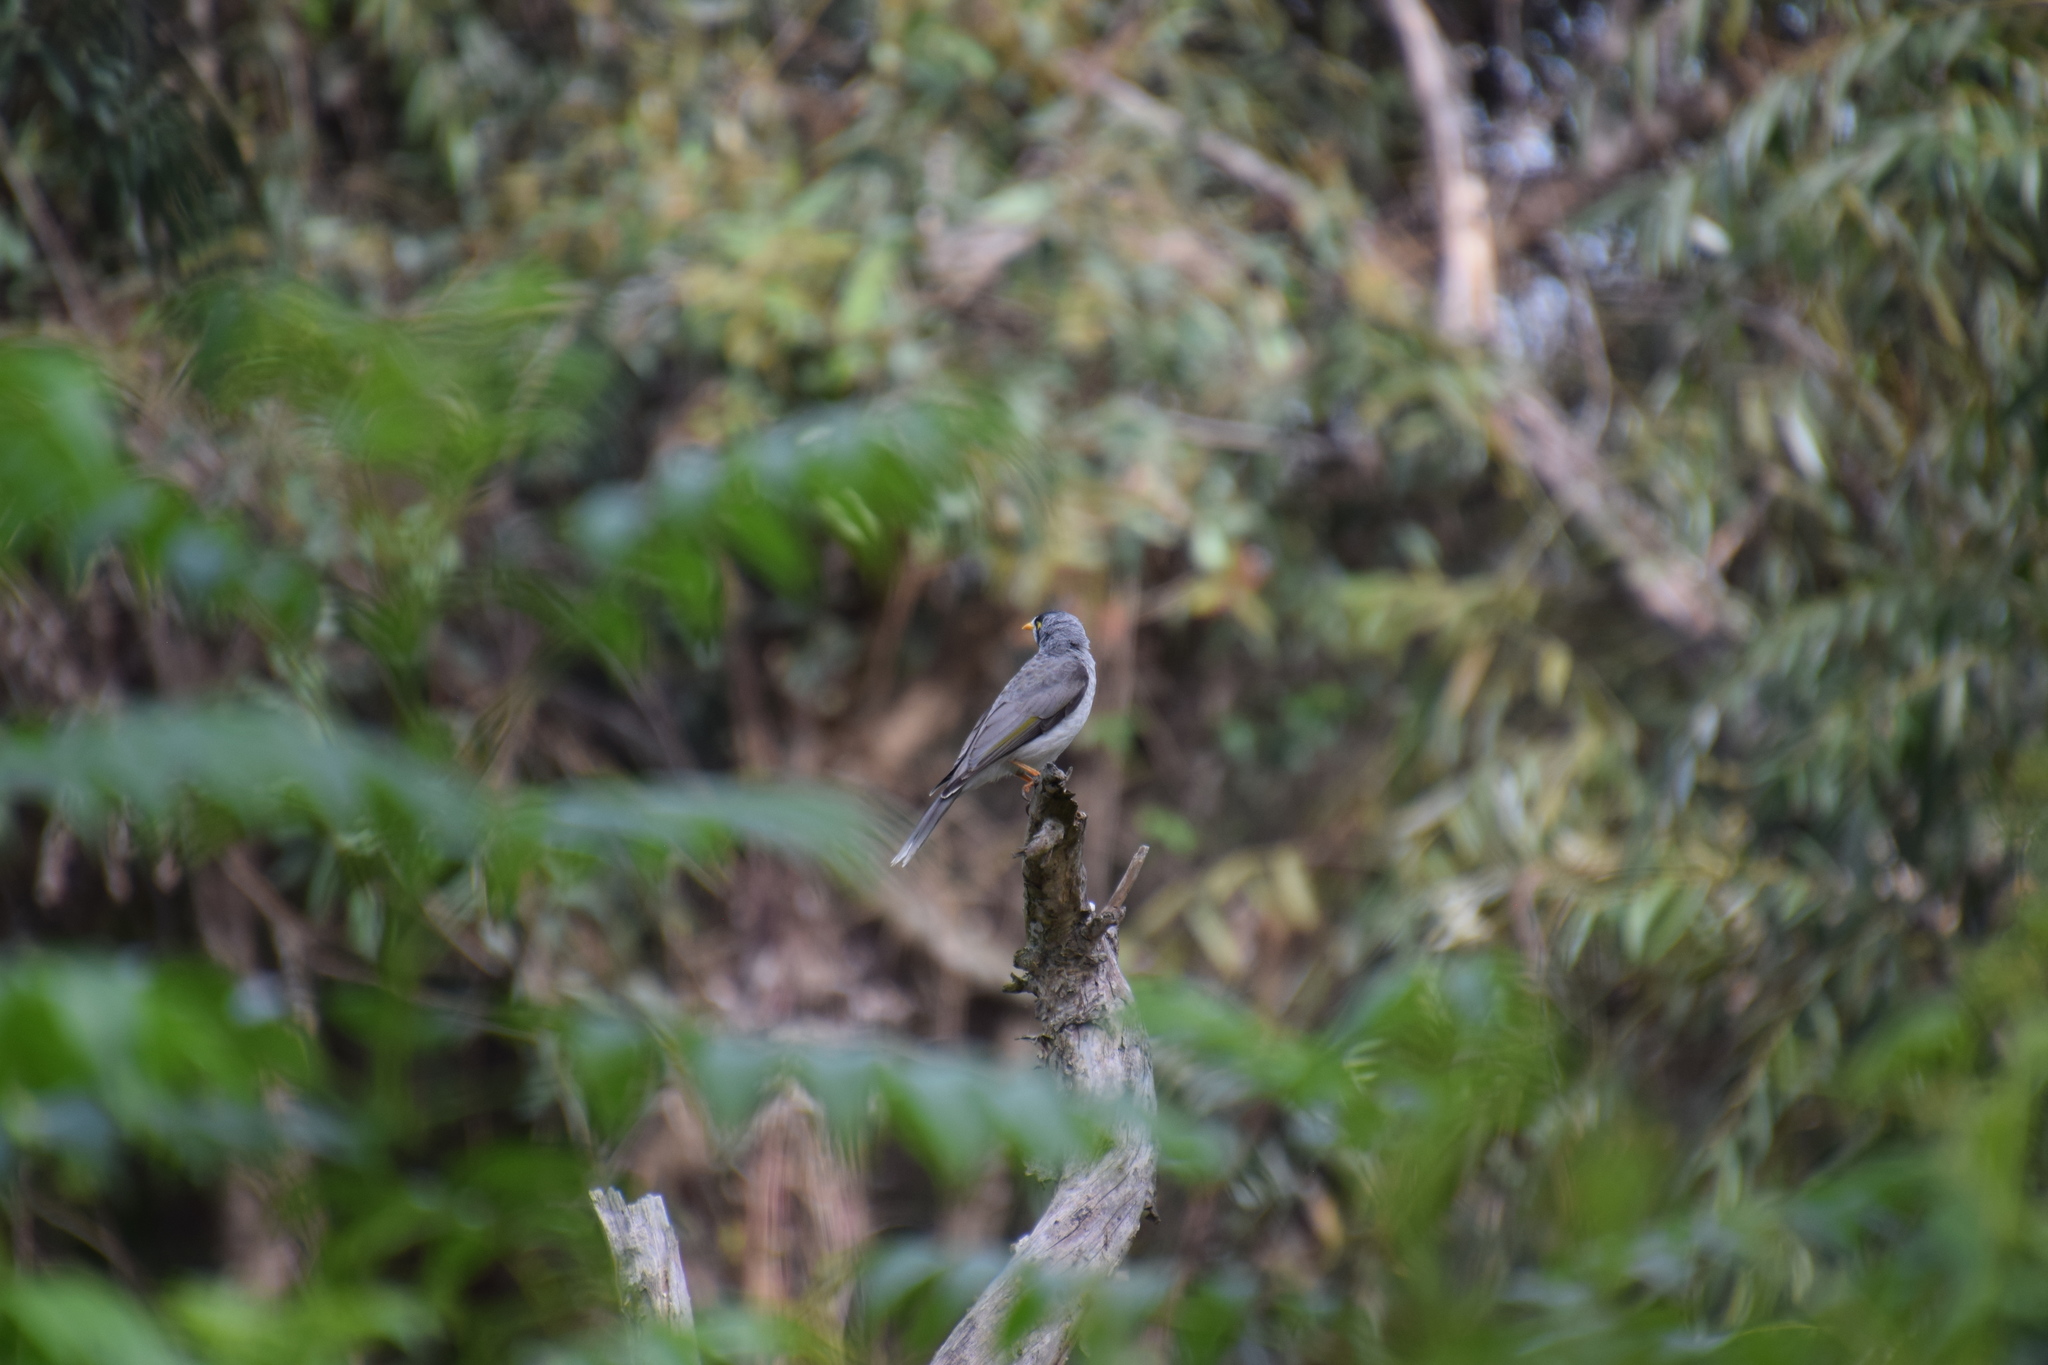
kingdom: Animalia
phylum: Chordata
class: Aves
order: Passeriformes
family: Meliphagidae
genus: Manorina
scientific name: Manorina melanocephala
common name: Noisy miner
